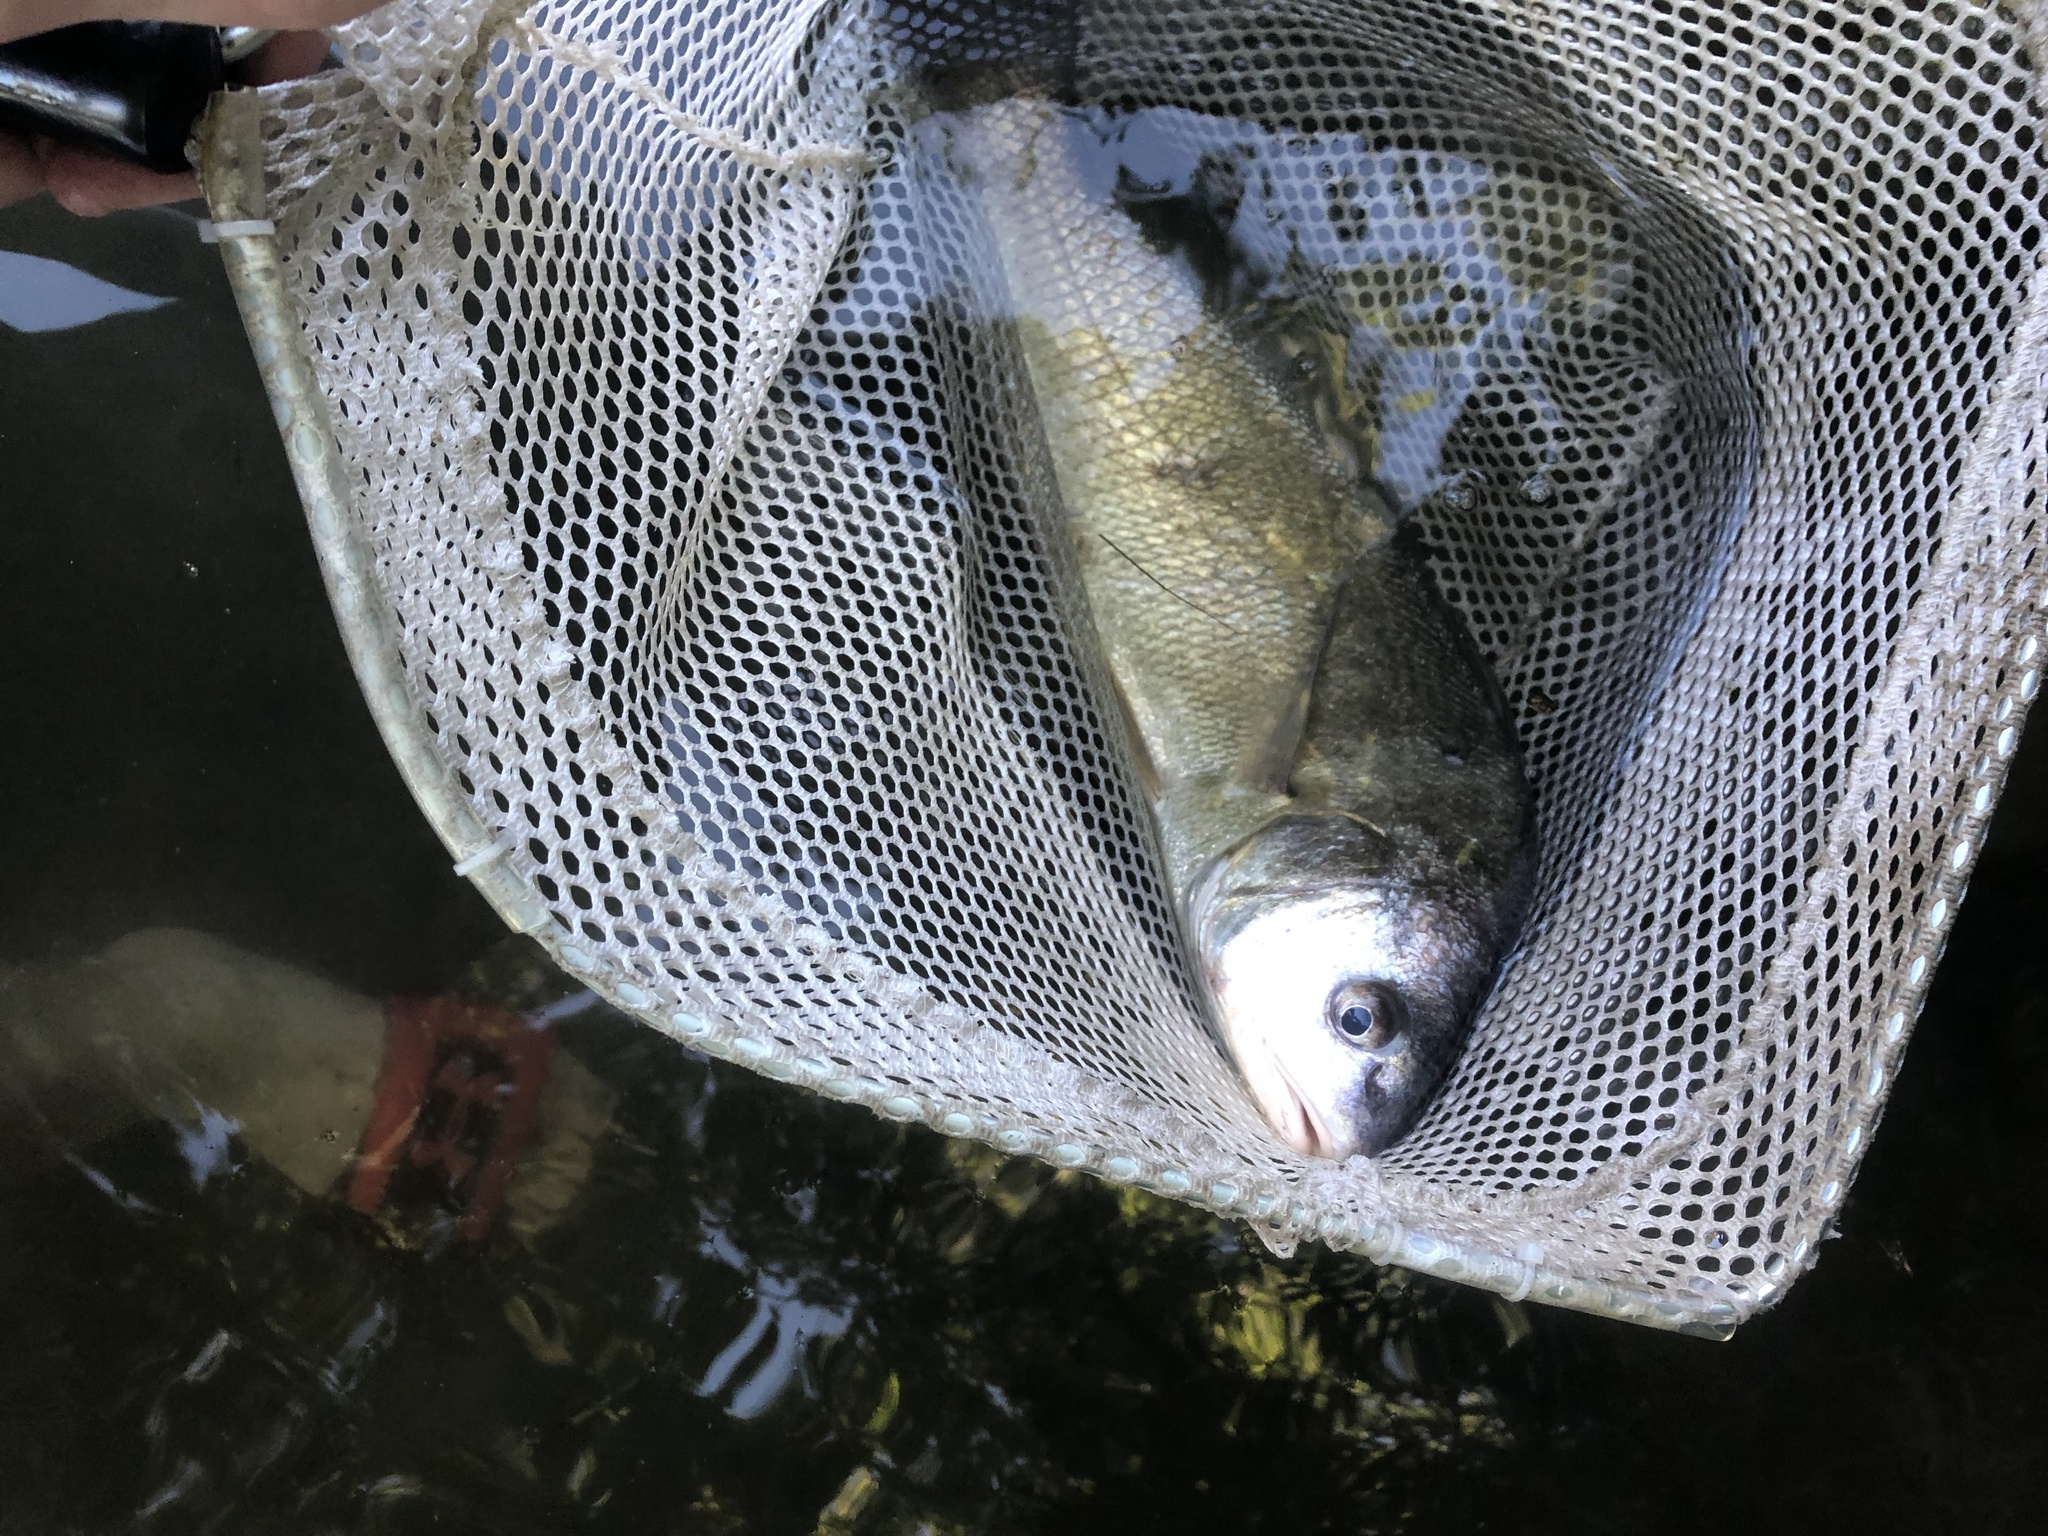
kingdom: Animalia
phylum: Chordata
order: Perciformes
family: Sciaenidae
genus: Aplodinotus
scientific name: Aplodinotus grunniens
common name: Freshwater drum
